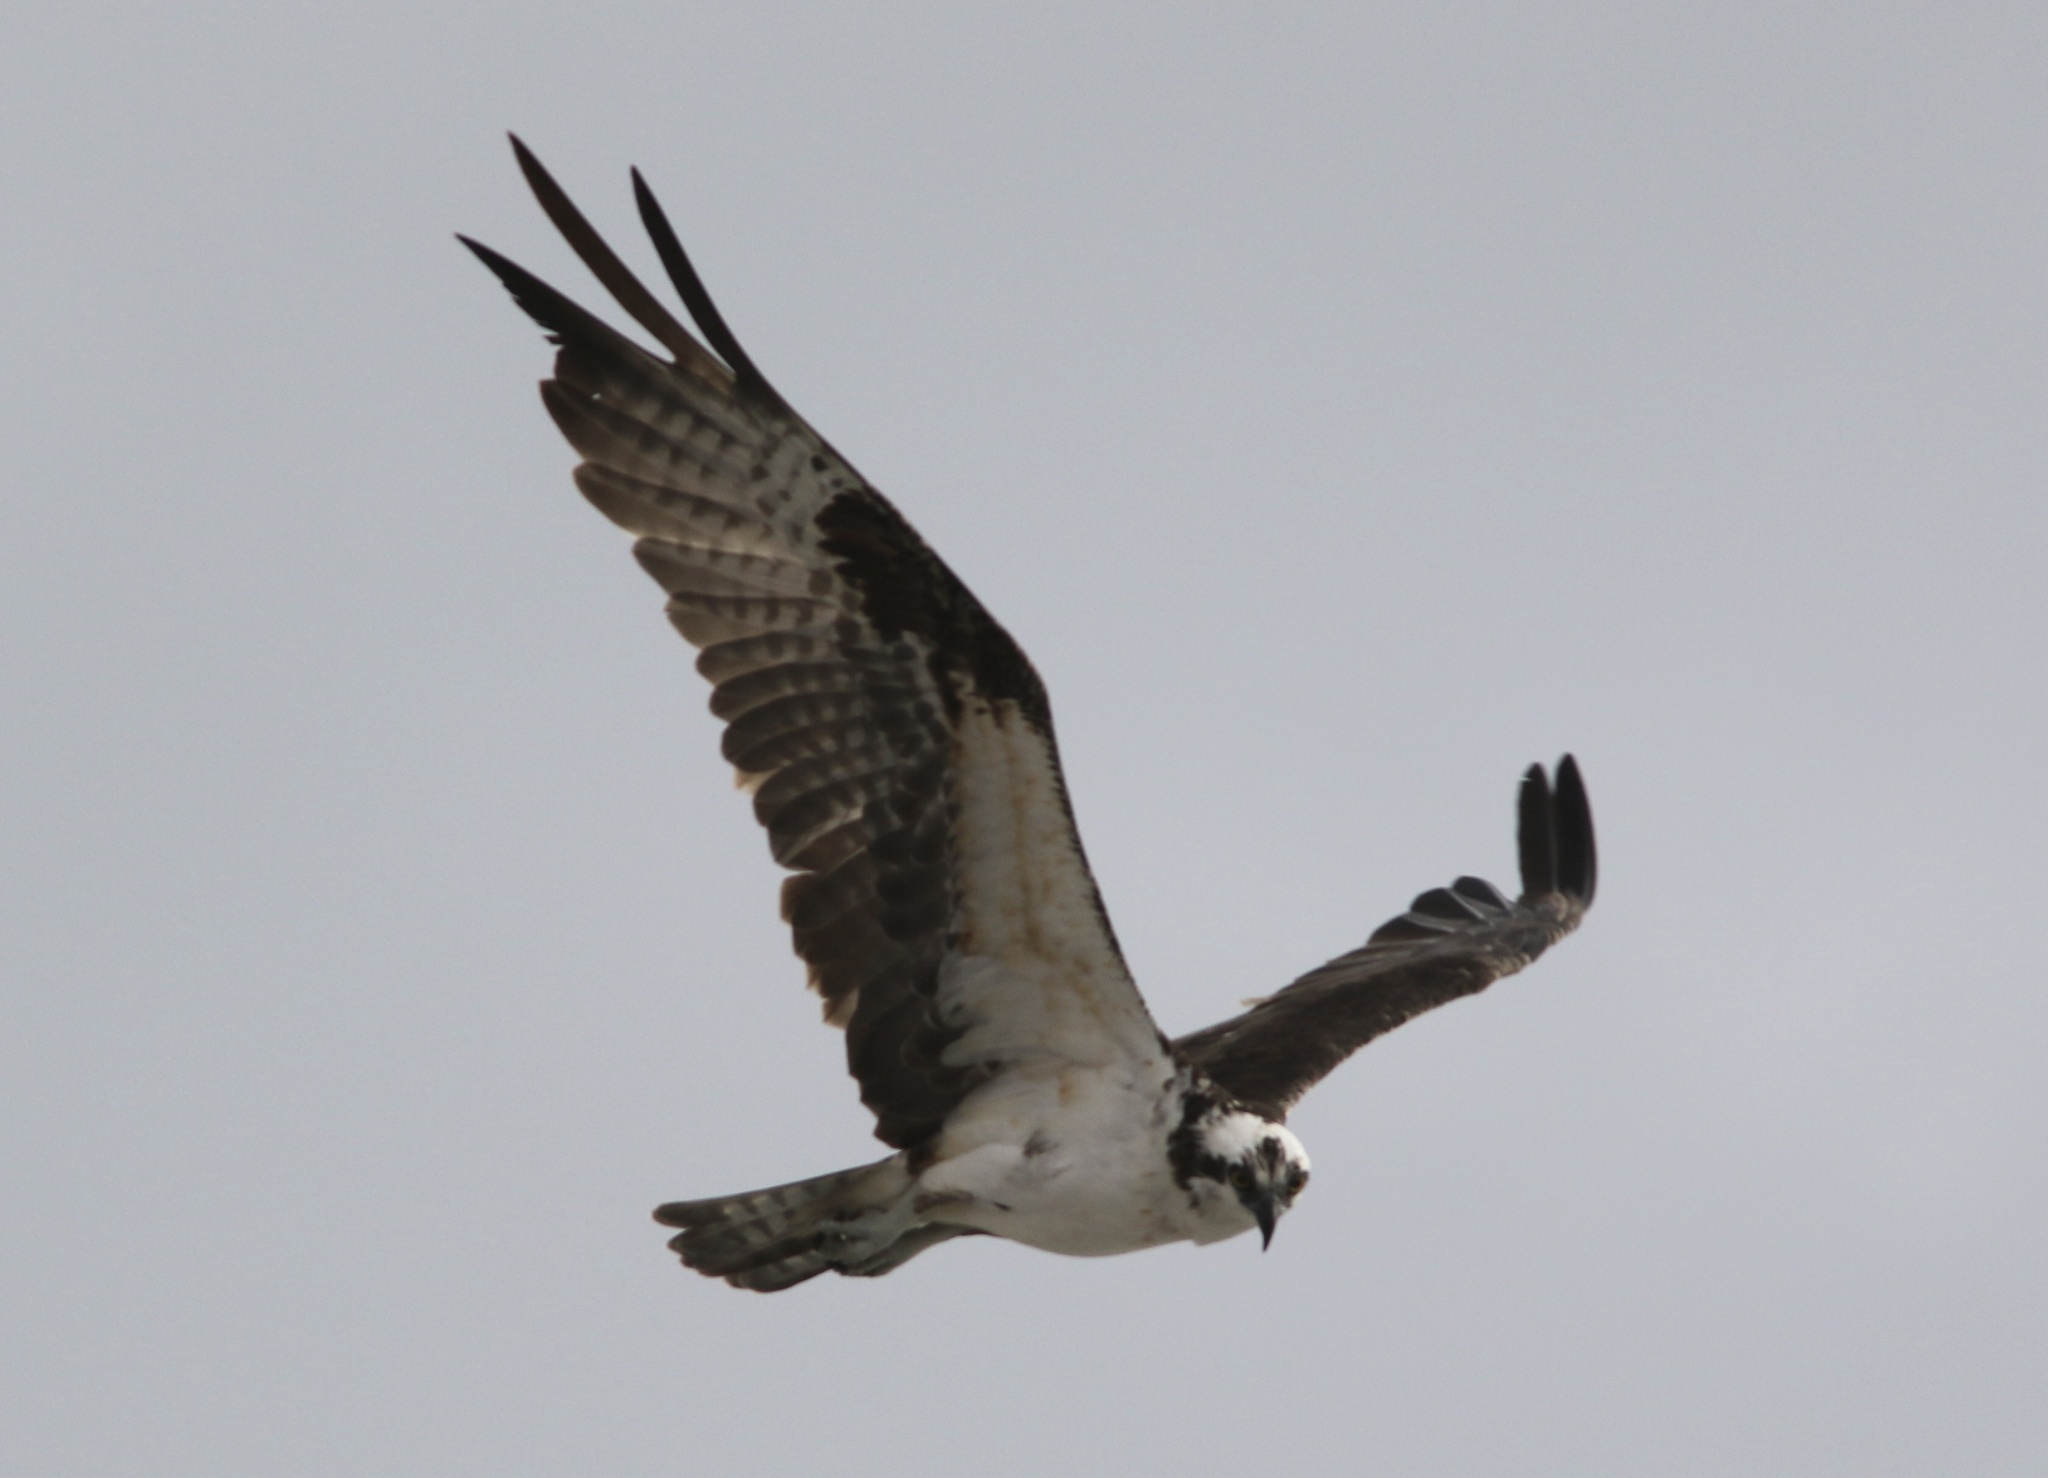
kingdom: Animalia
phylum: Chordata
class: Aves
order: Accipitriformes
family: Pandionidae
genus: Pandion
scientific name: Pandion haliaetus
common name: Osprey
